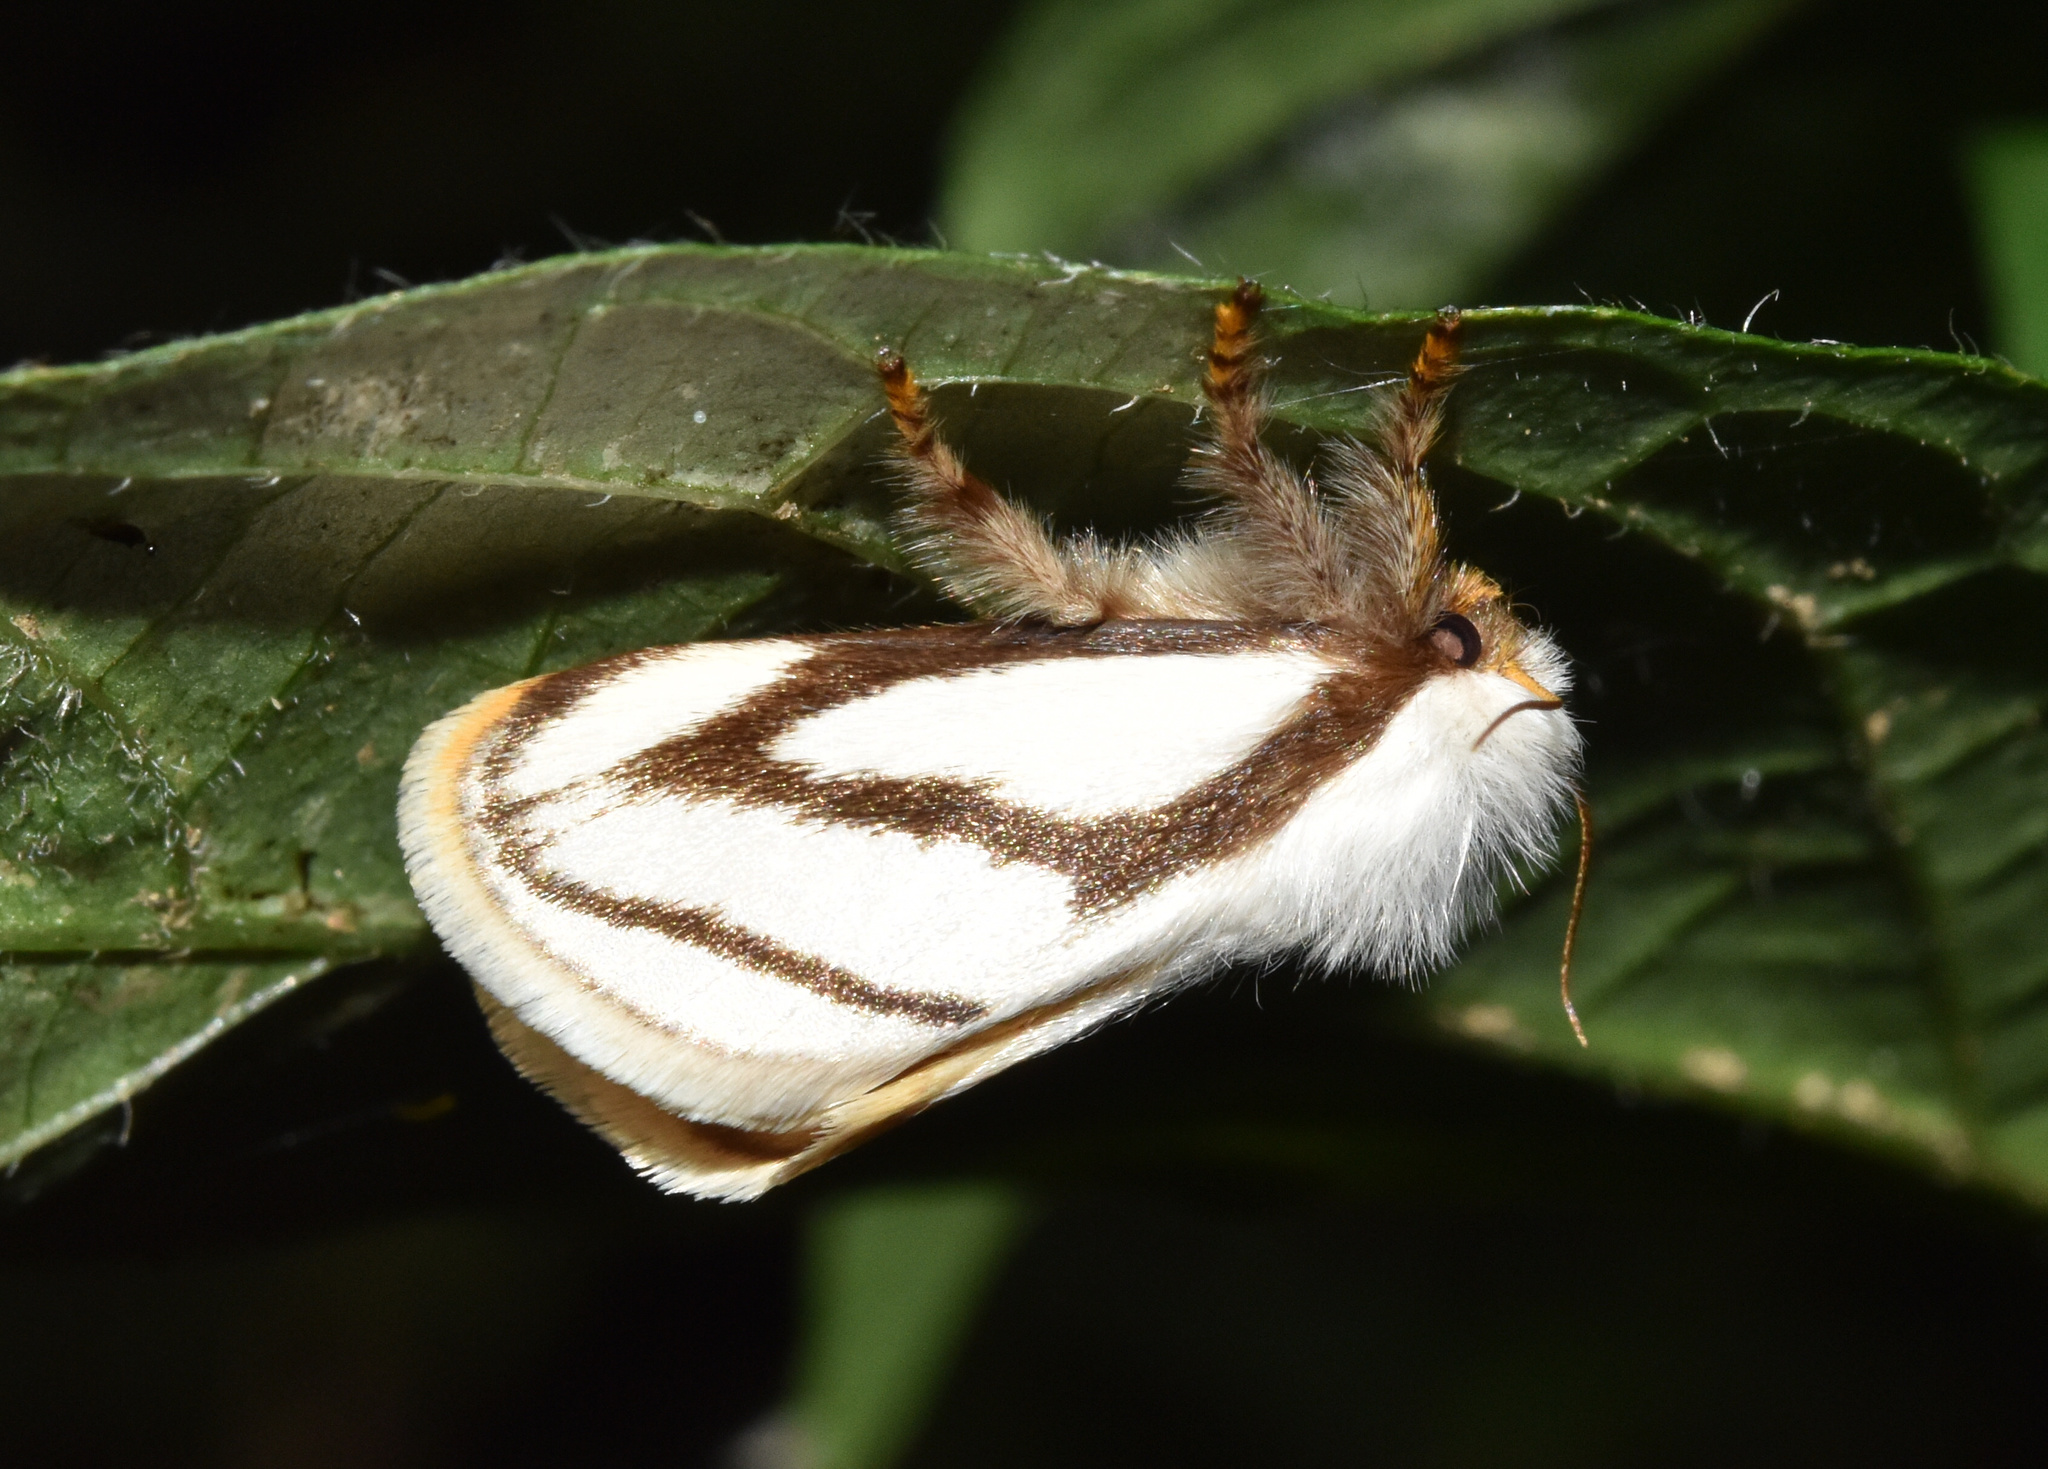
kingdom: Animalia
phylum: Arthropoda
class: Insecta
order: Lepidoptera
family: Limacodidae
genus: Parapluda
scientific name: Parapluda invitabilis
